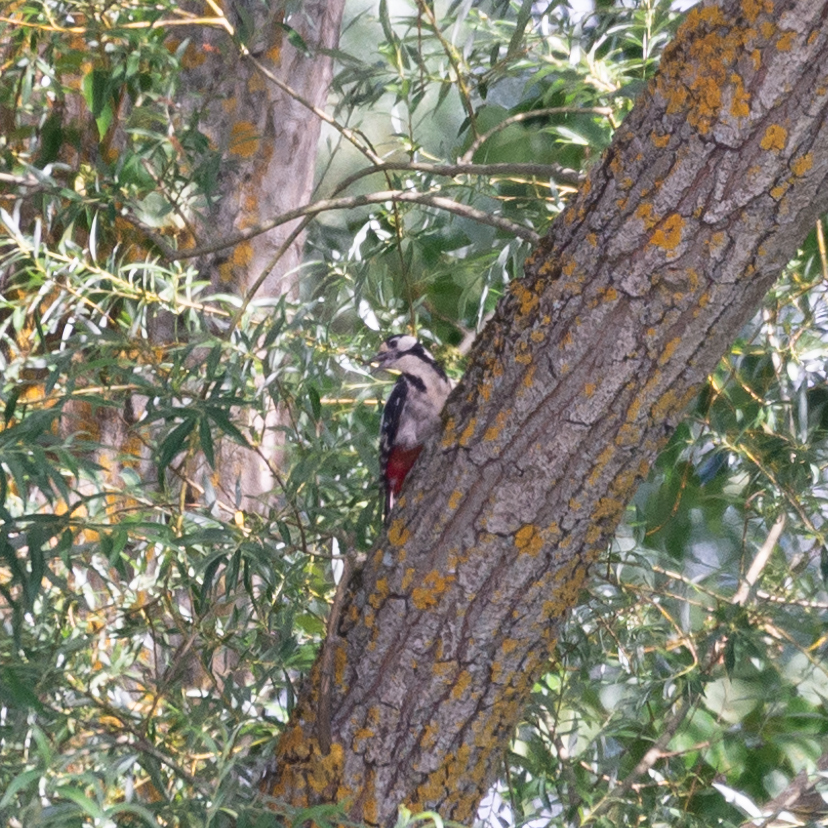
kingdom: Animalia
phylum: Chordata
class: Aves
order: Piciformes
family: Picidae
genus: Dendrocopos
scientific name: Dendrocopos major
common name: Great spotted woodpecker
